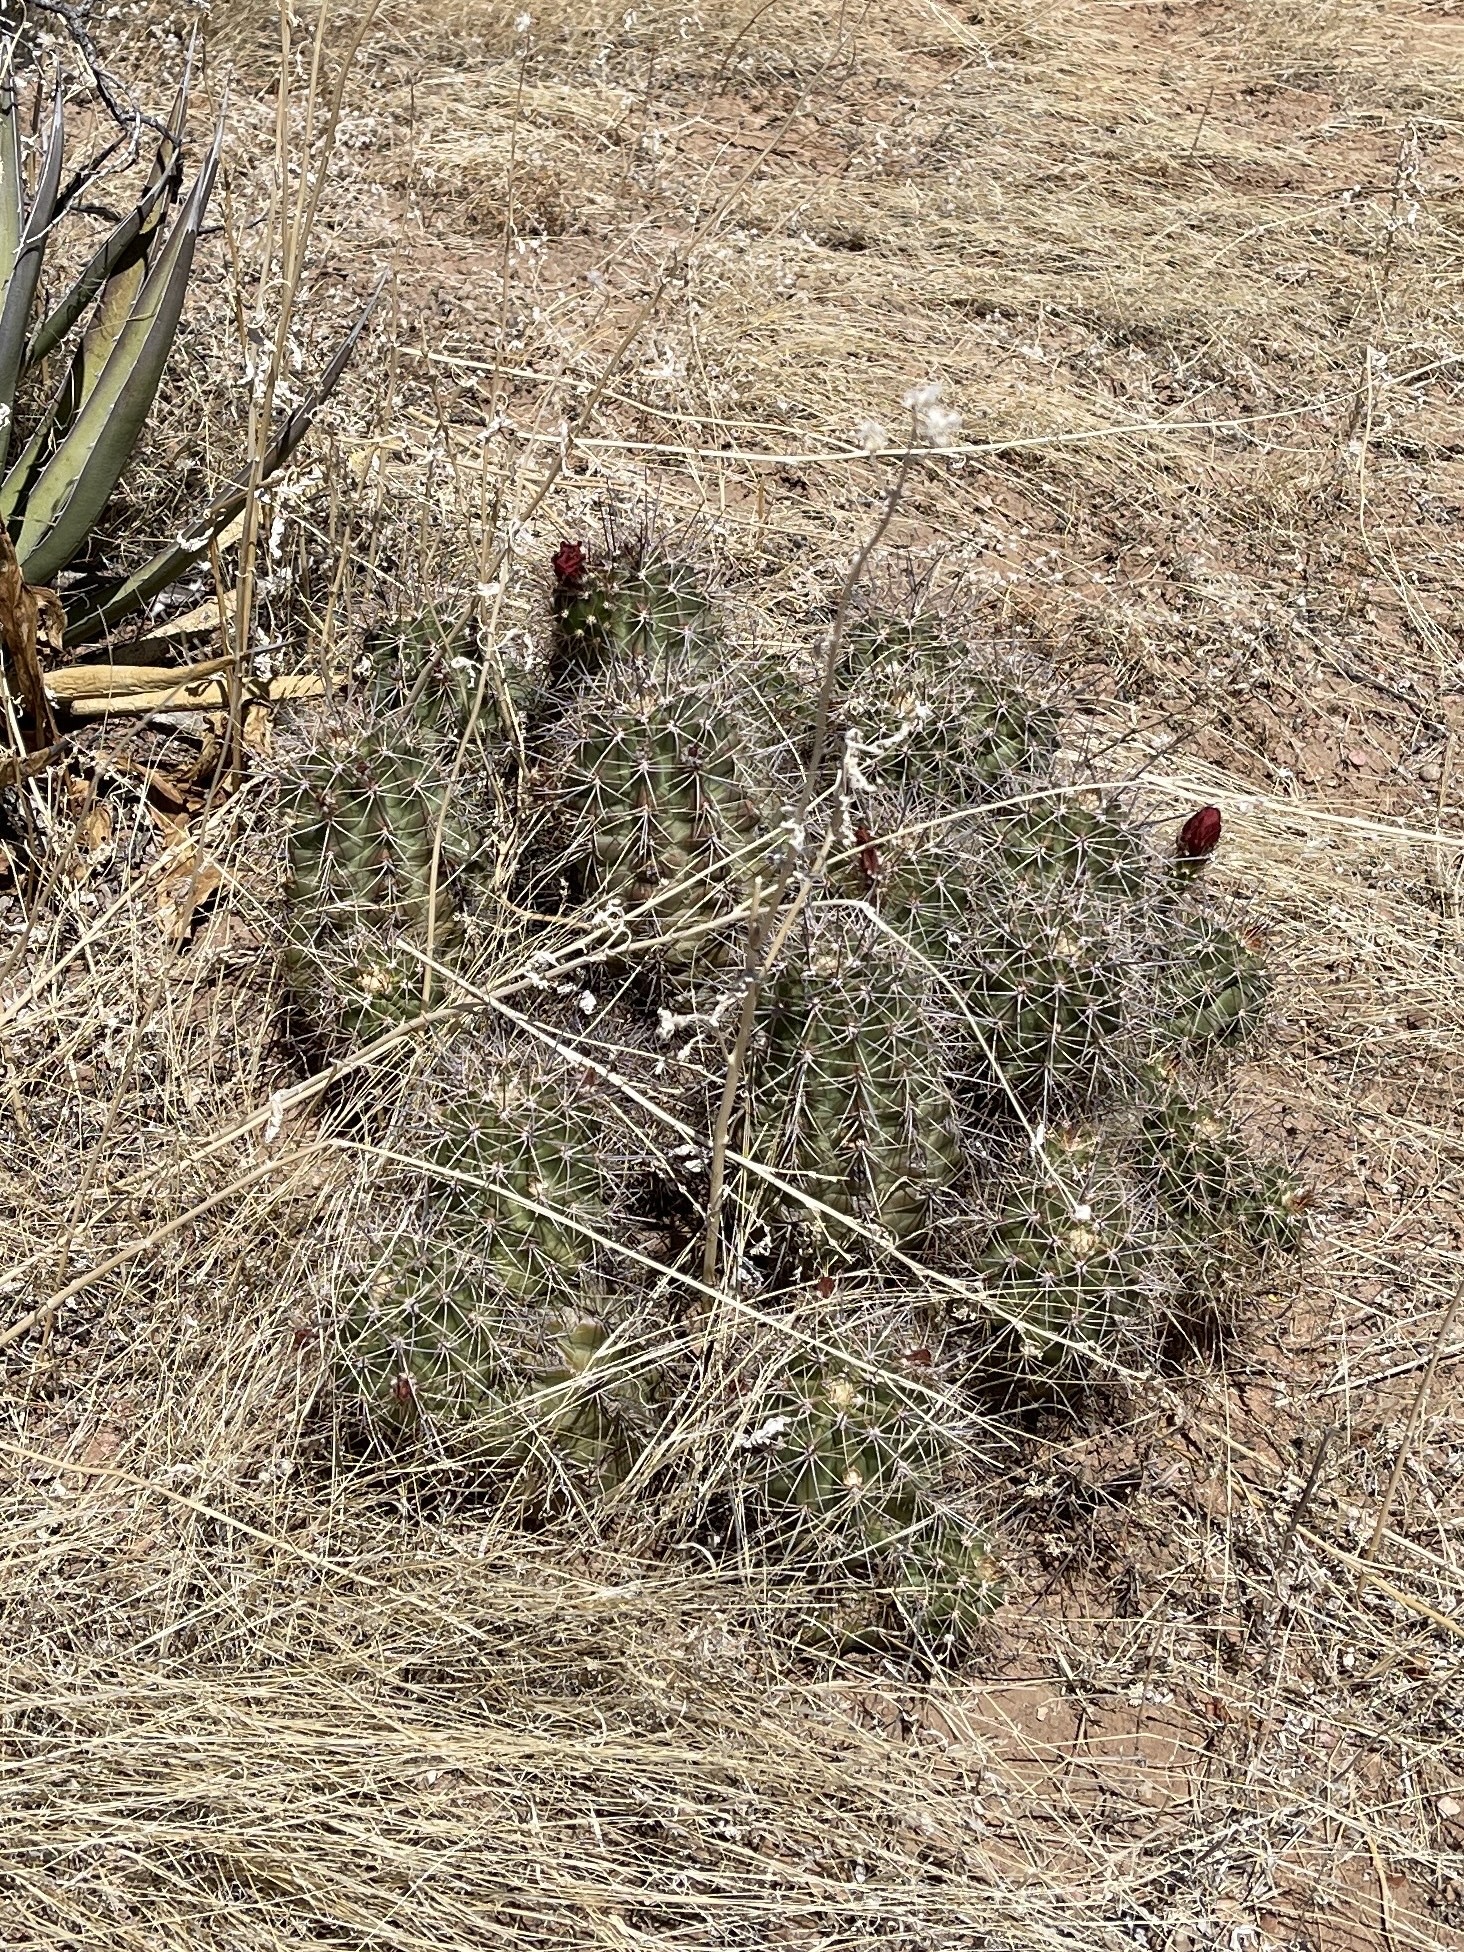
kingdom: Plantae
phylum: Tracheophyta
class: Magnoliopsida
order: Caryophyllales
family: Cactaceae
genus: Echinocereus
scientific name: Echinocereus coccineus
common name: Scarlet hedgehog cactus
